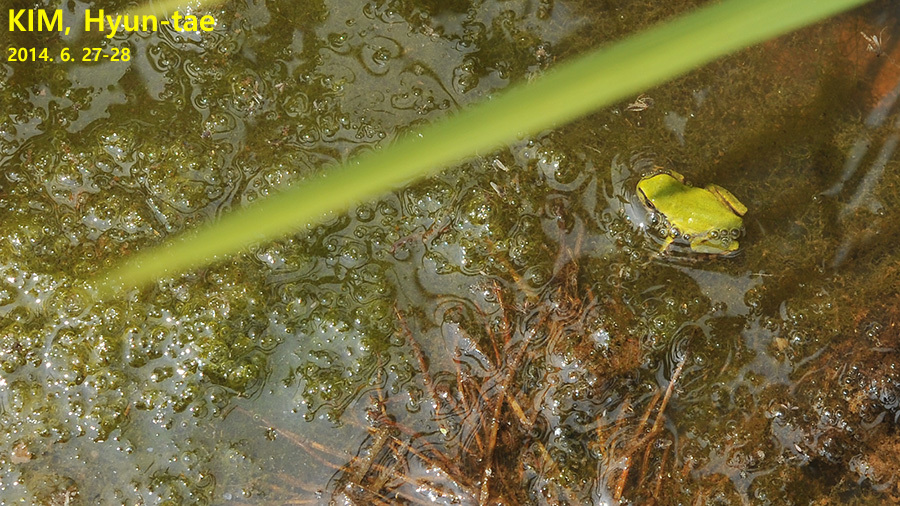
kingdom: Animalia
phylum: Chordata
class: Amphibia
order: Anura
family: Hylidae
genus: Dryophytes
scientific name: Dryophytes immaculatus
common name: North china treefrog
